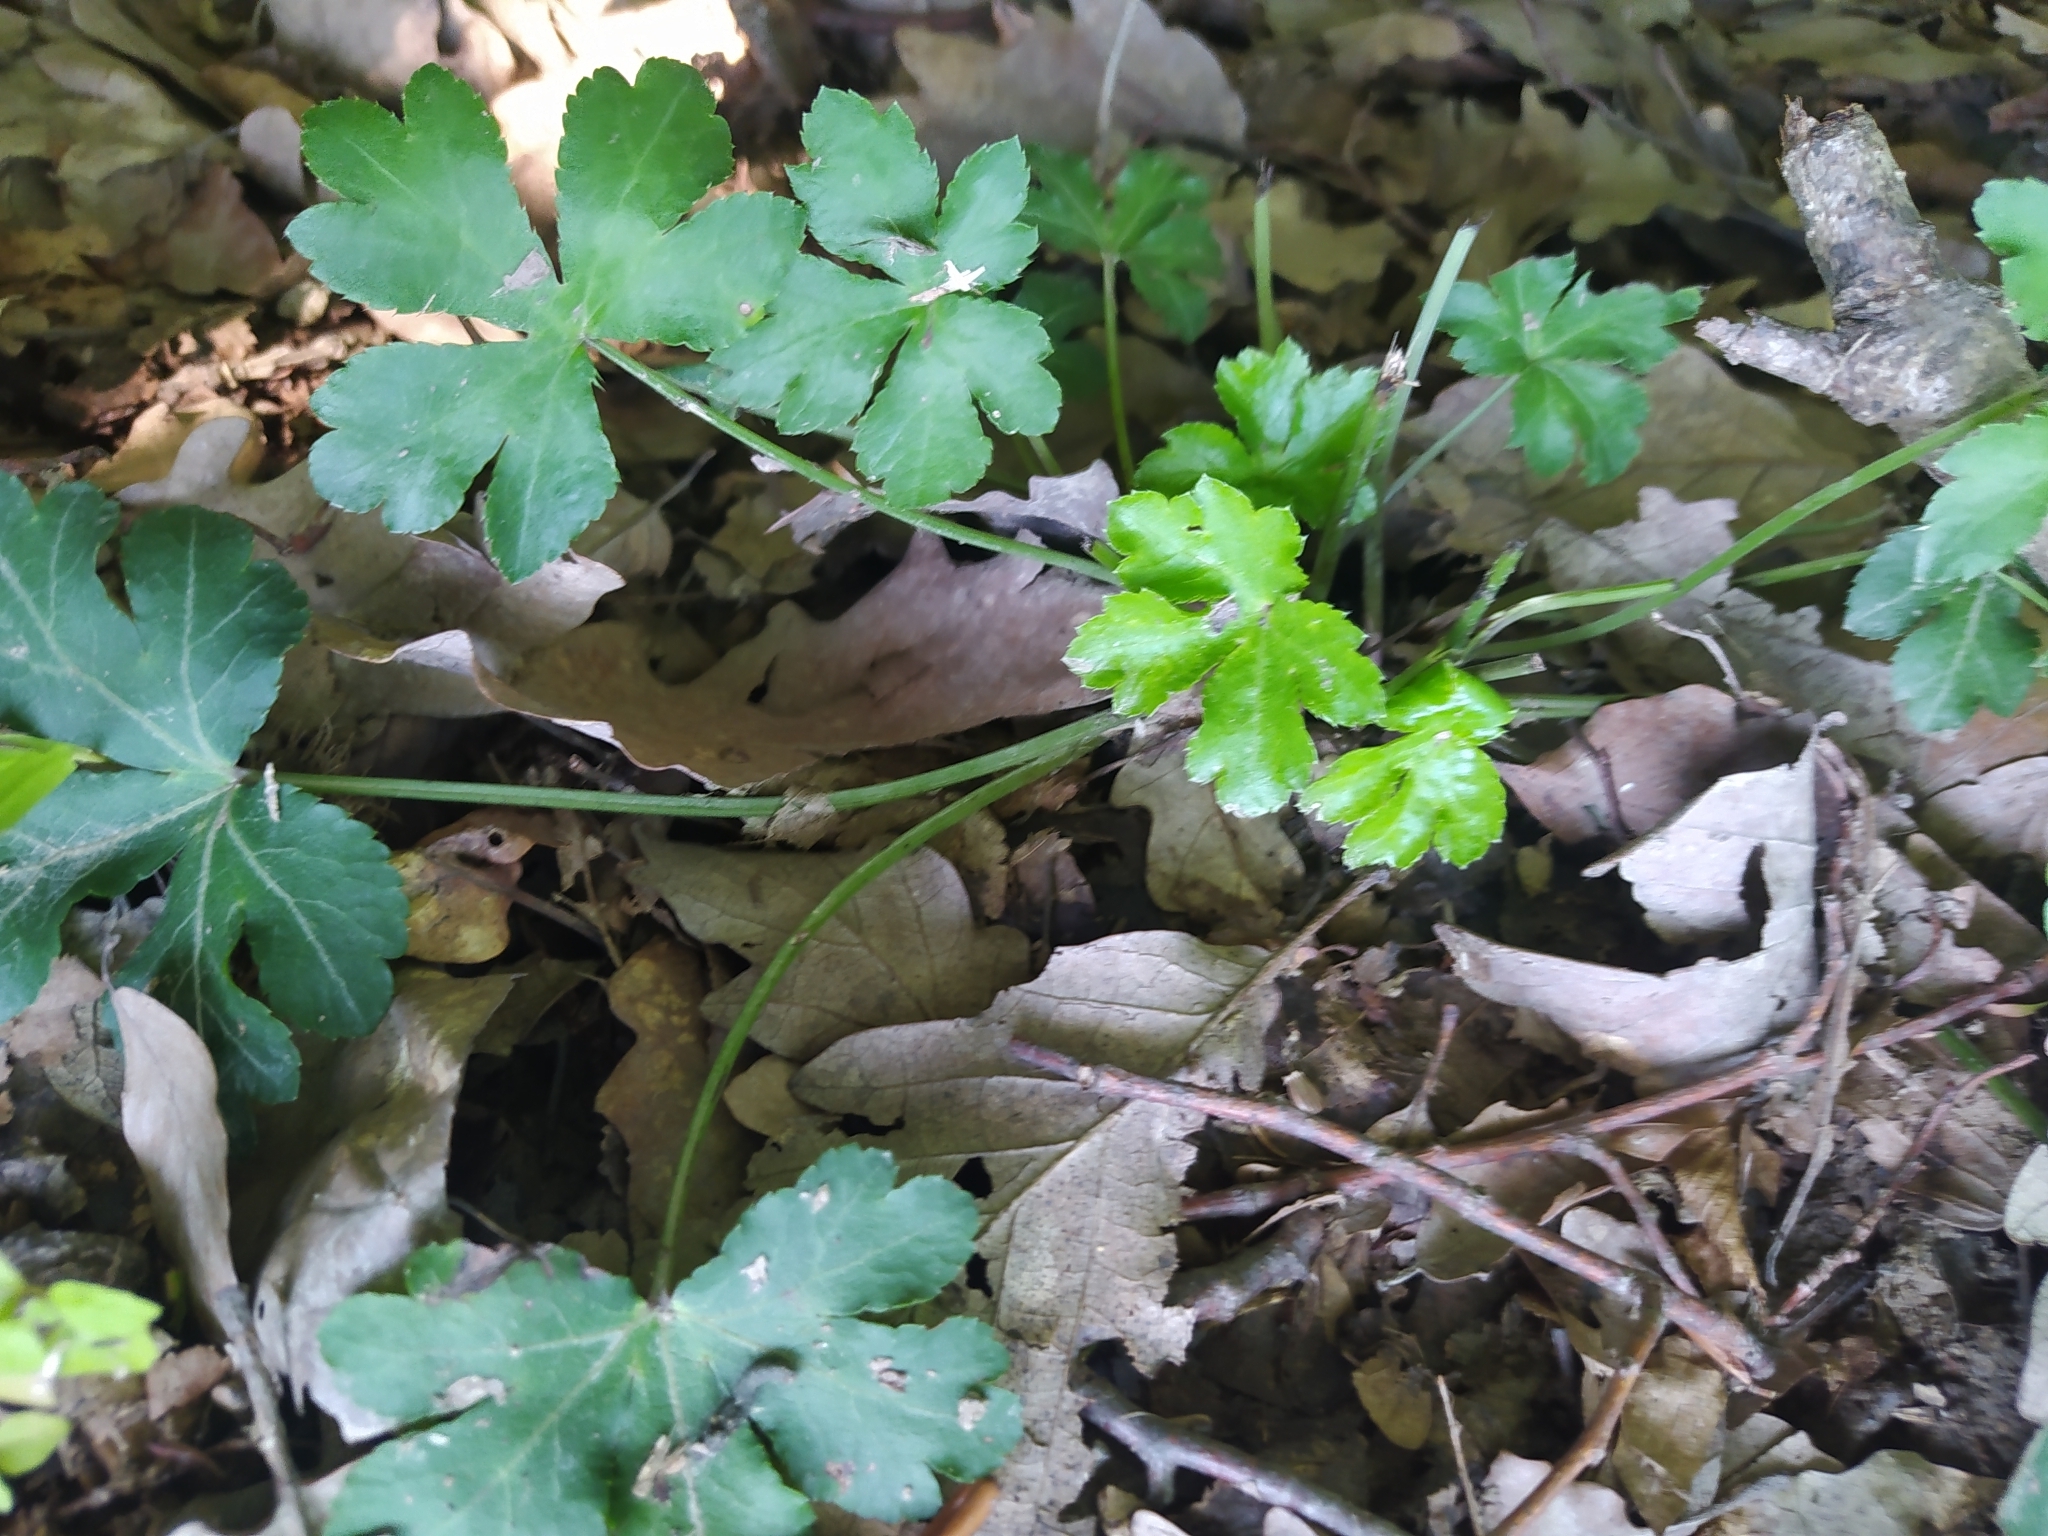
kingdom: Plantae
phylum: Tracheophyta
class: Magnoliopsida
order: Apiales
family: Apiaceae
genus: Sanicula
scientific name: Sanicula europaea
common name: Sanicle
